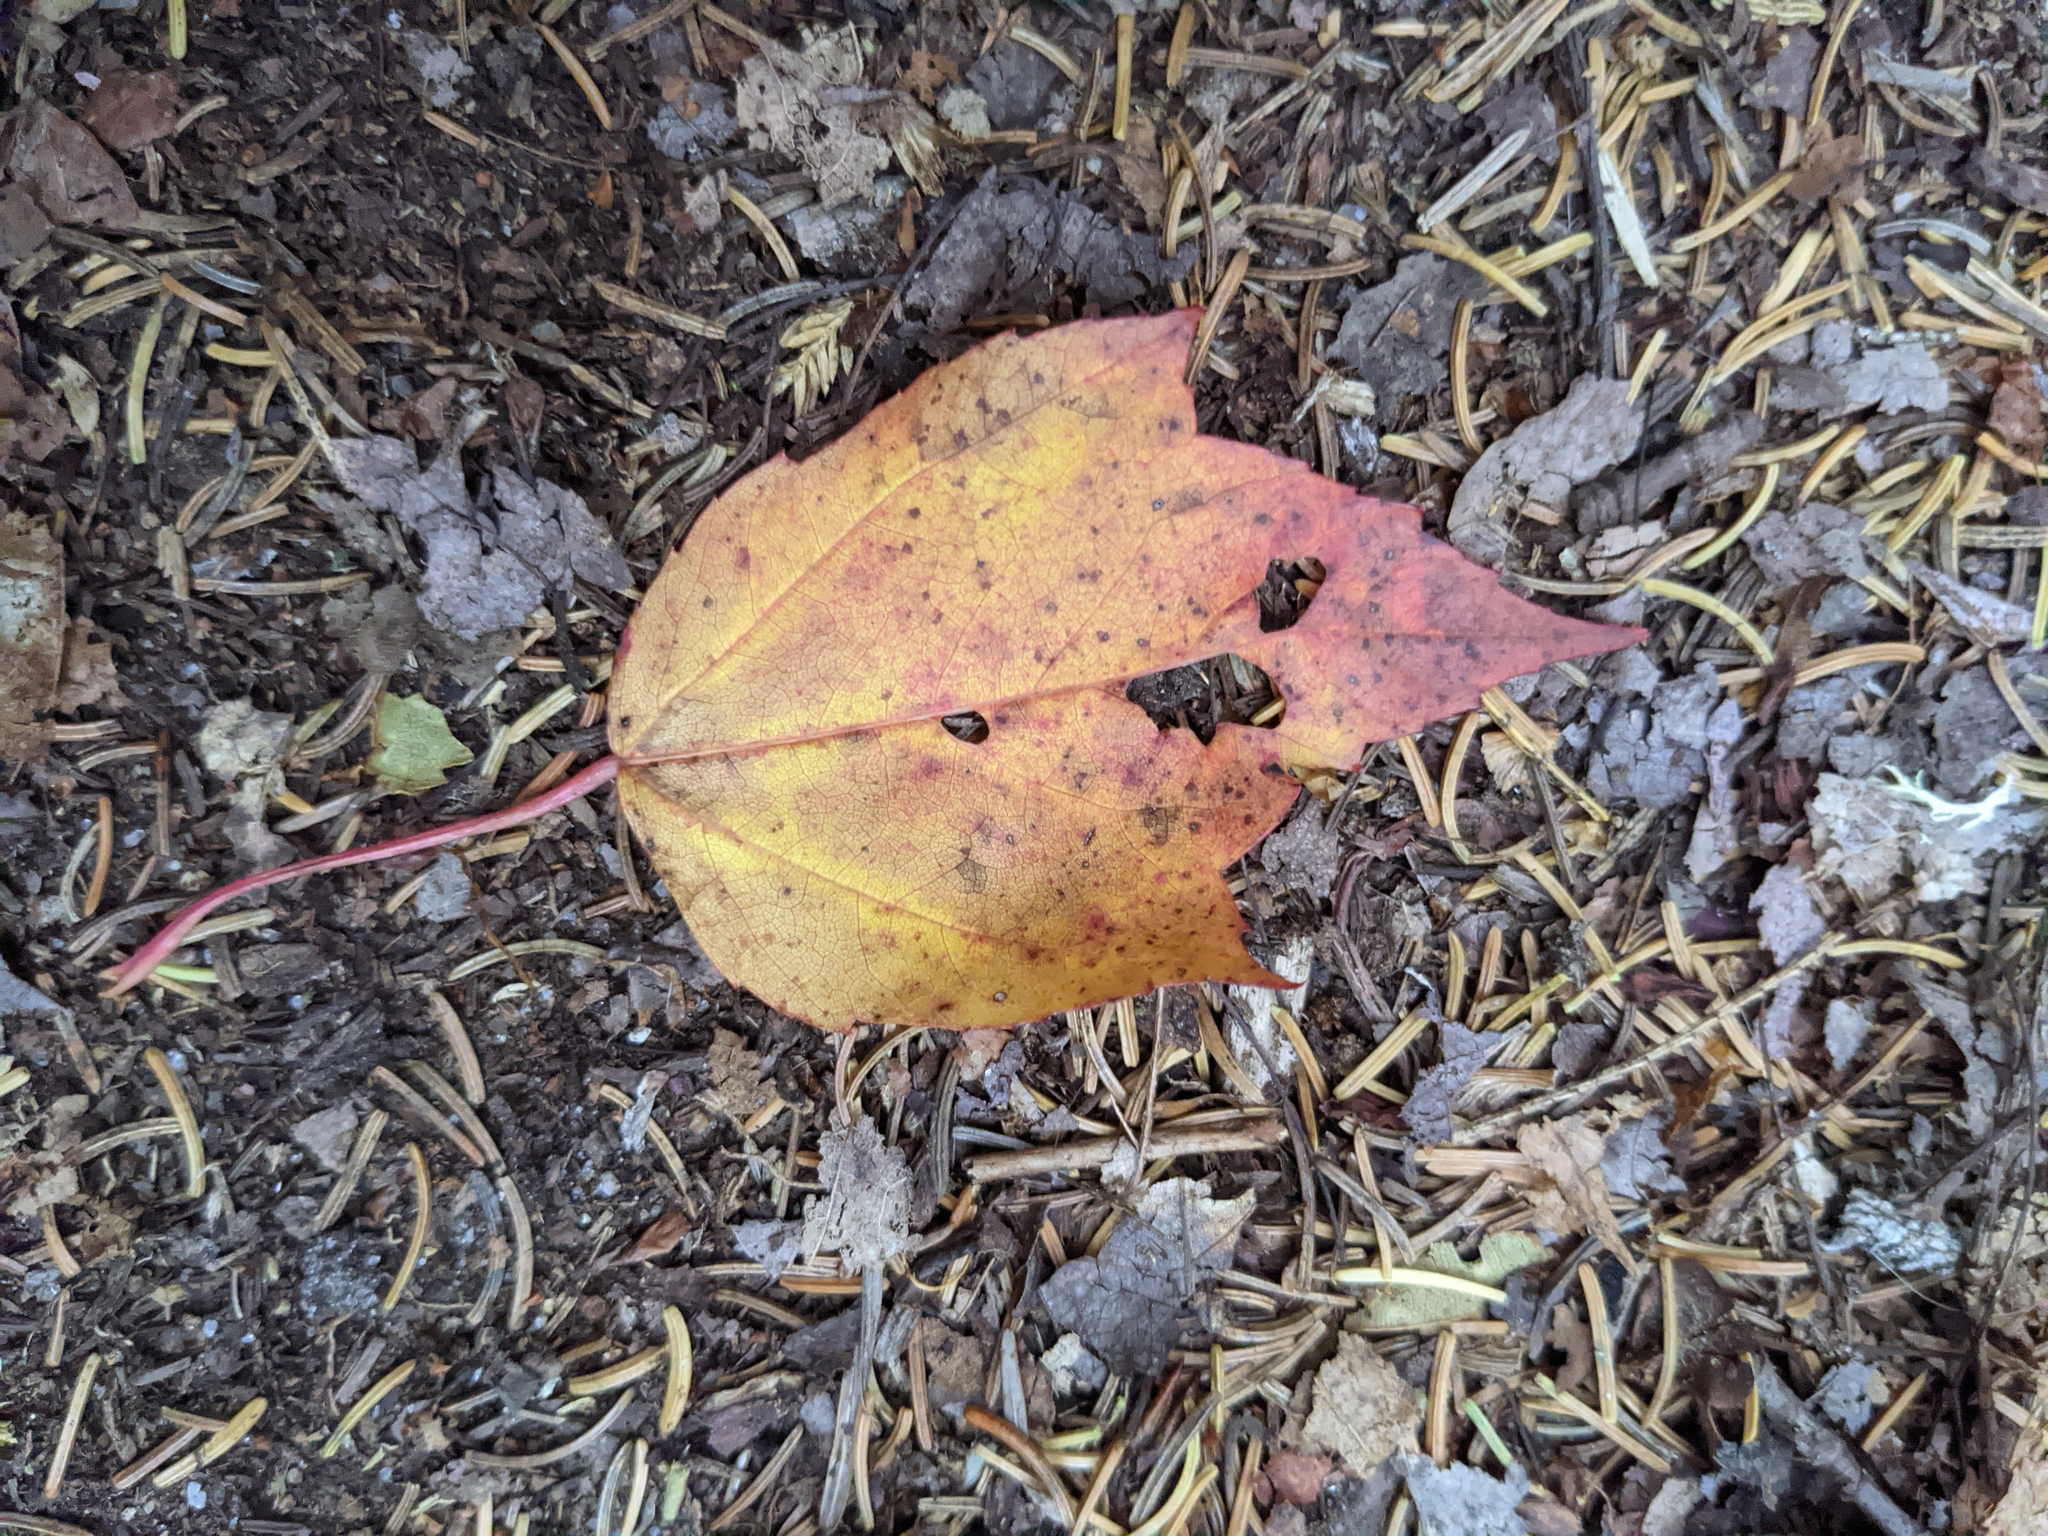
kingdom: Plantae
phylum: Tracheophyta
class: Magnoliopsida
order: Sapindales
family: Sapindaceae
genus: Acer
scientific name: Acer rubrum
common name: Red maple
